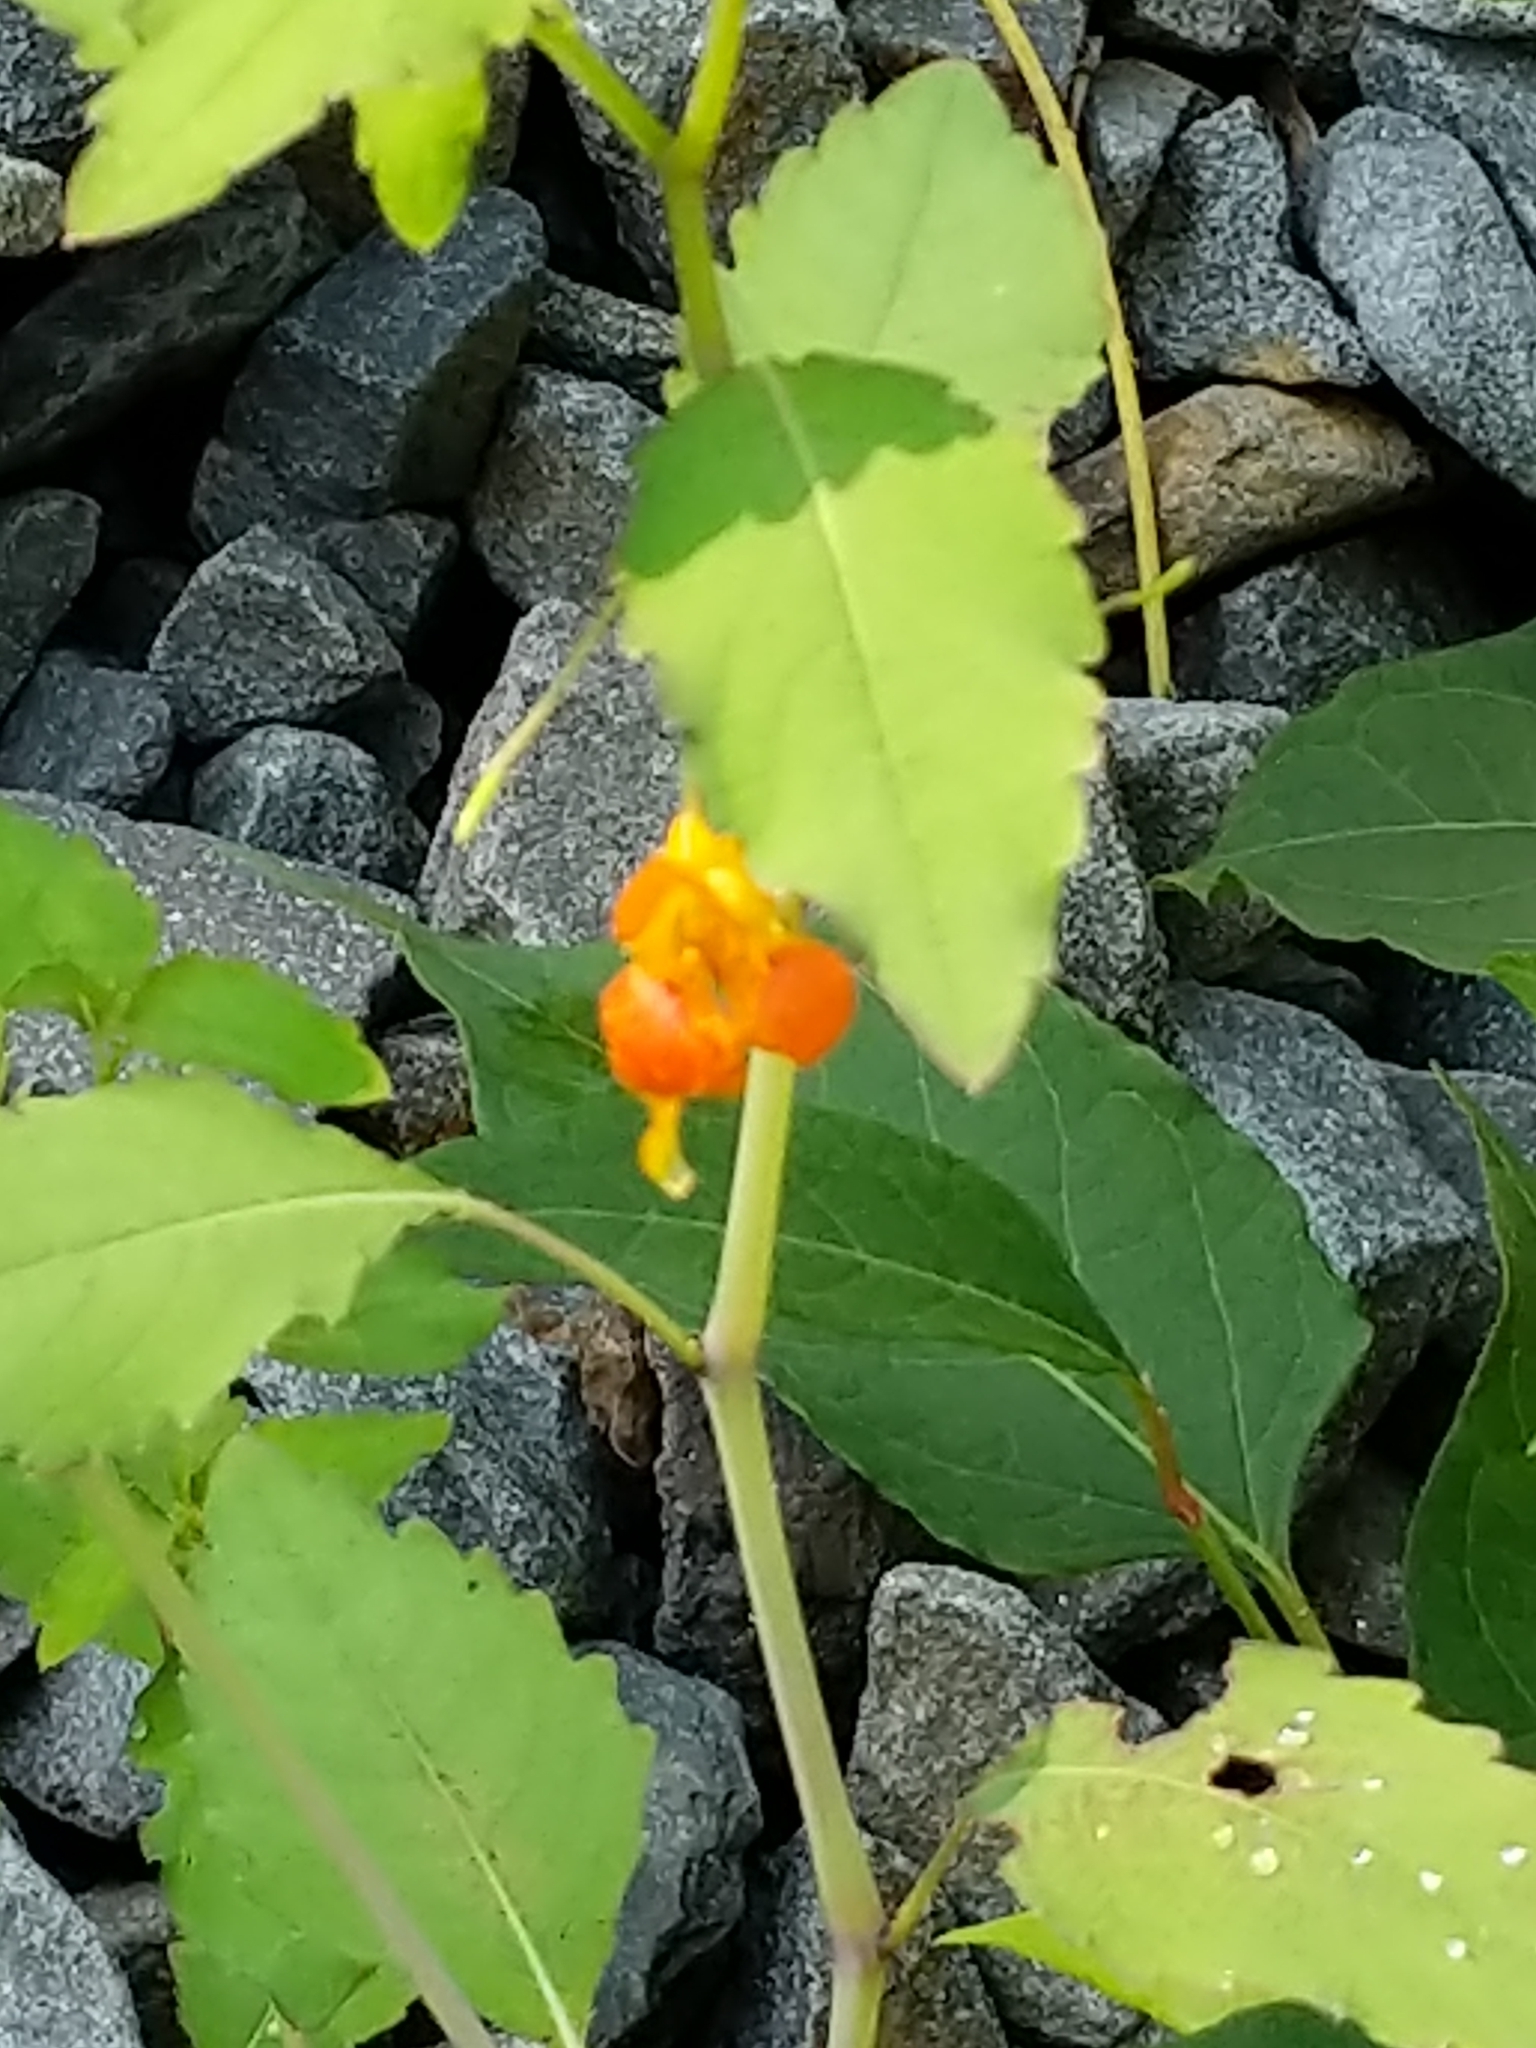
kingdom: Plantae
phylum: Tracheophyta
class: Magnoliopsida
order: Ericales
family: Balsaminaceae
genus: Impatiens
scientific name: Impatiens capensis
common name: Orange balsam
